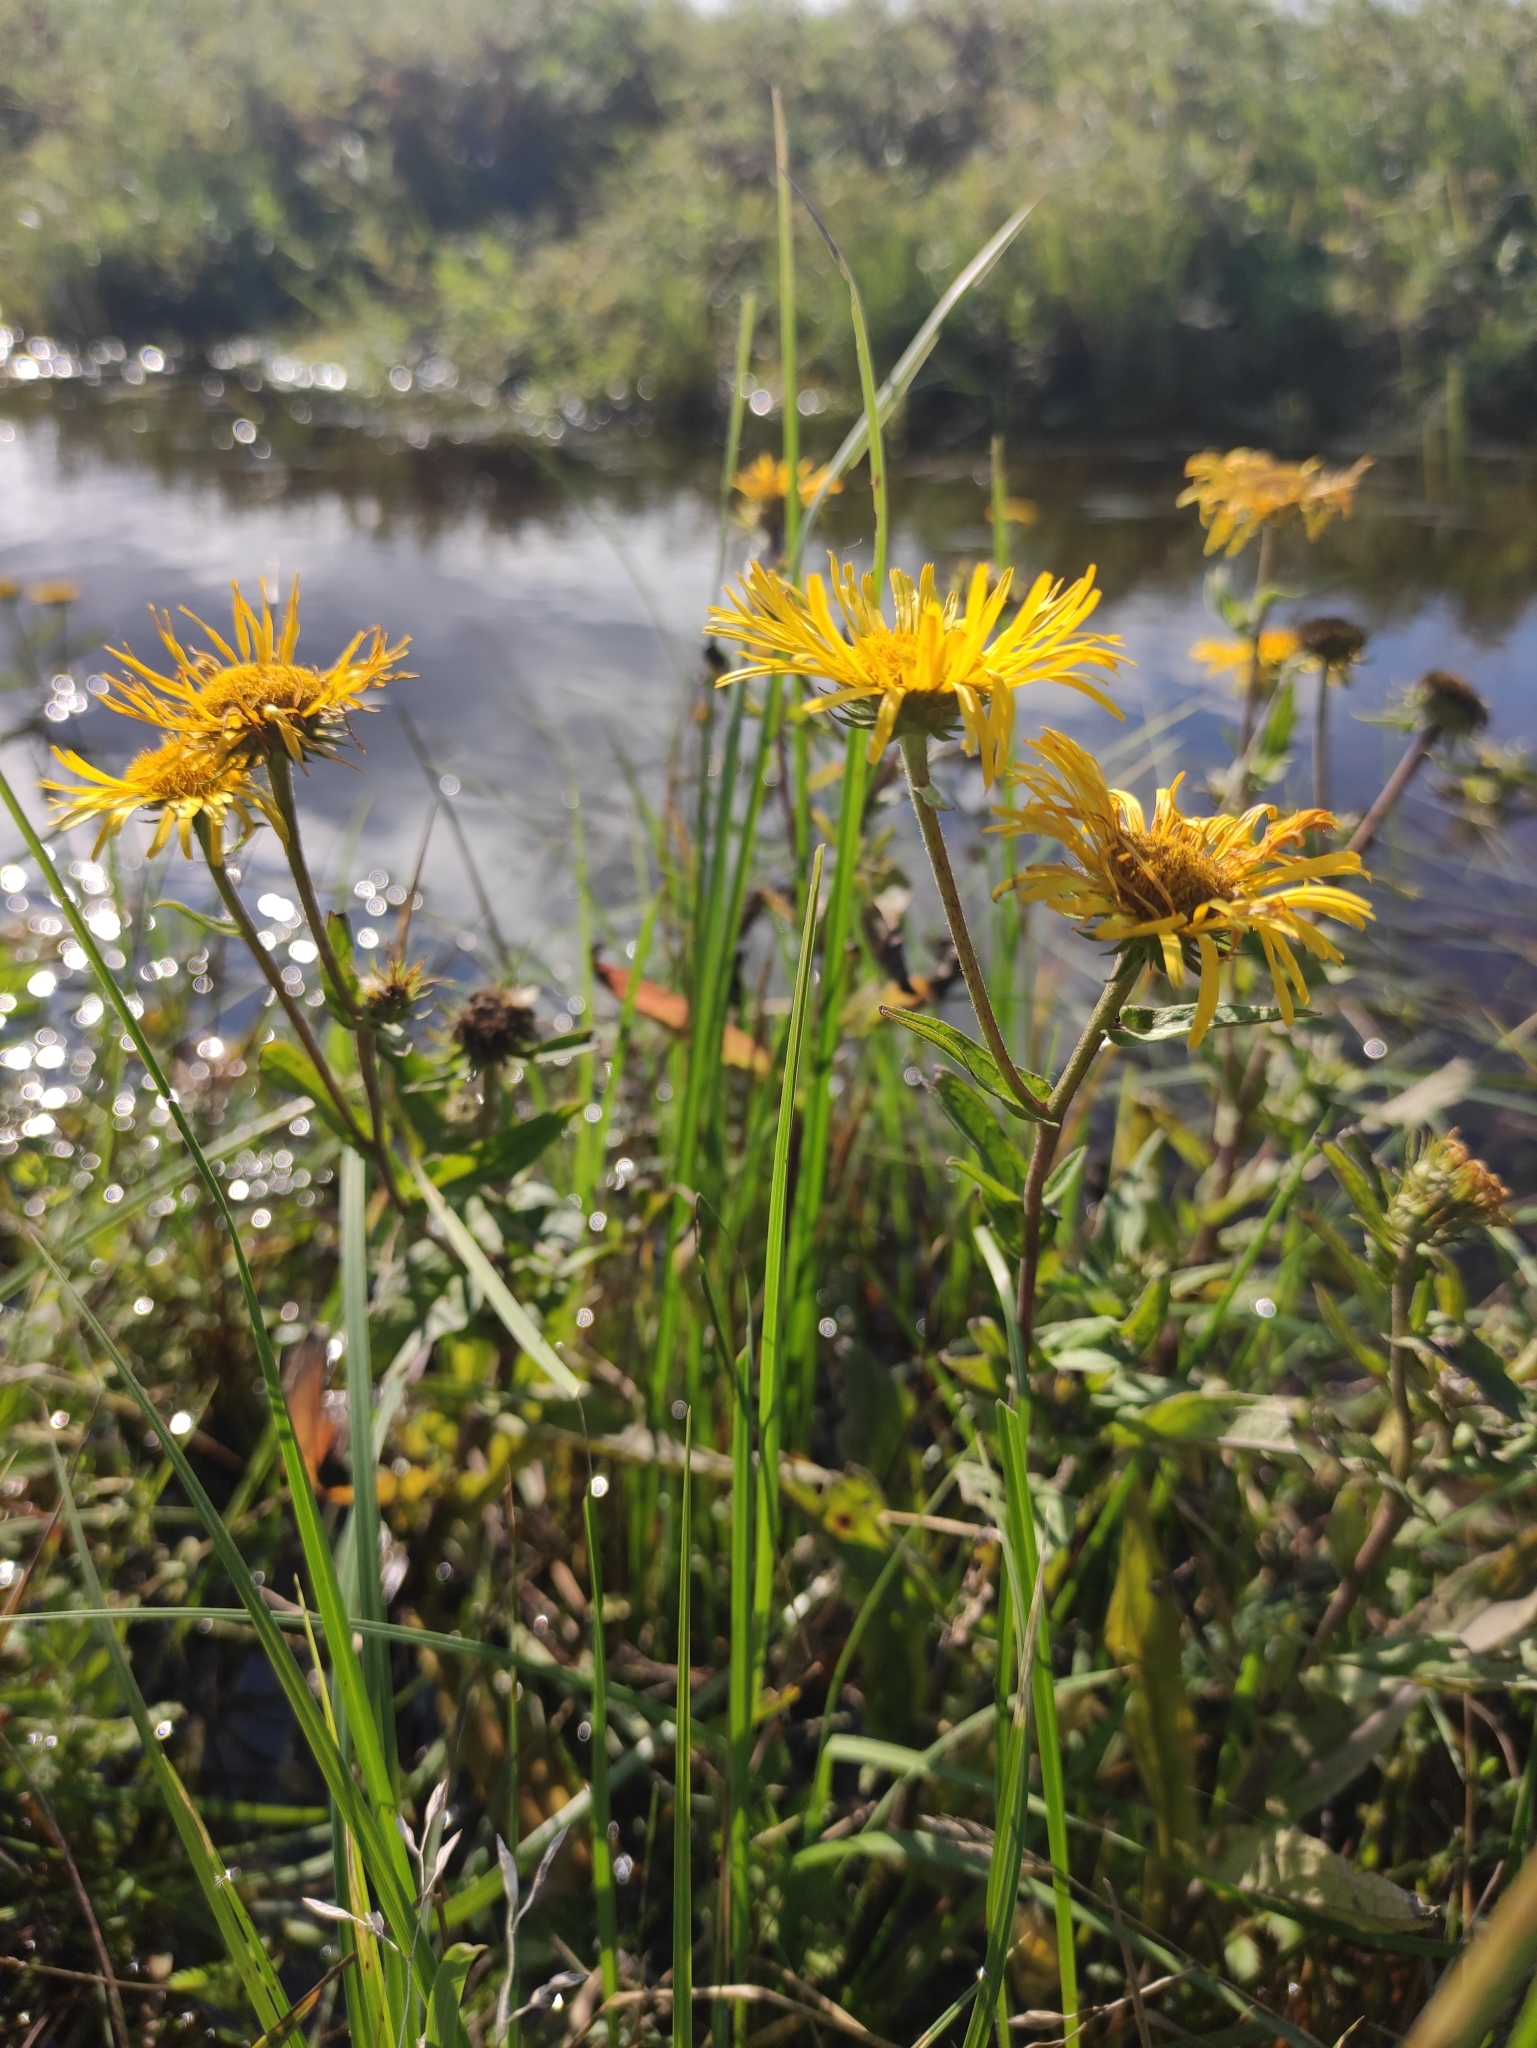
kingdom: Plantae
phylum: Tracheophyta
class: Magnoliopsida
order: Asterales
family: Asteraceae
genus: Pentanema
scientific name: Pentanema britannicum
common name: British elecampane
